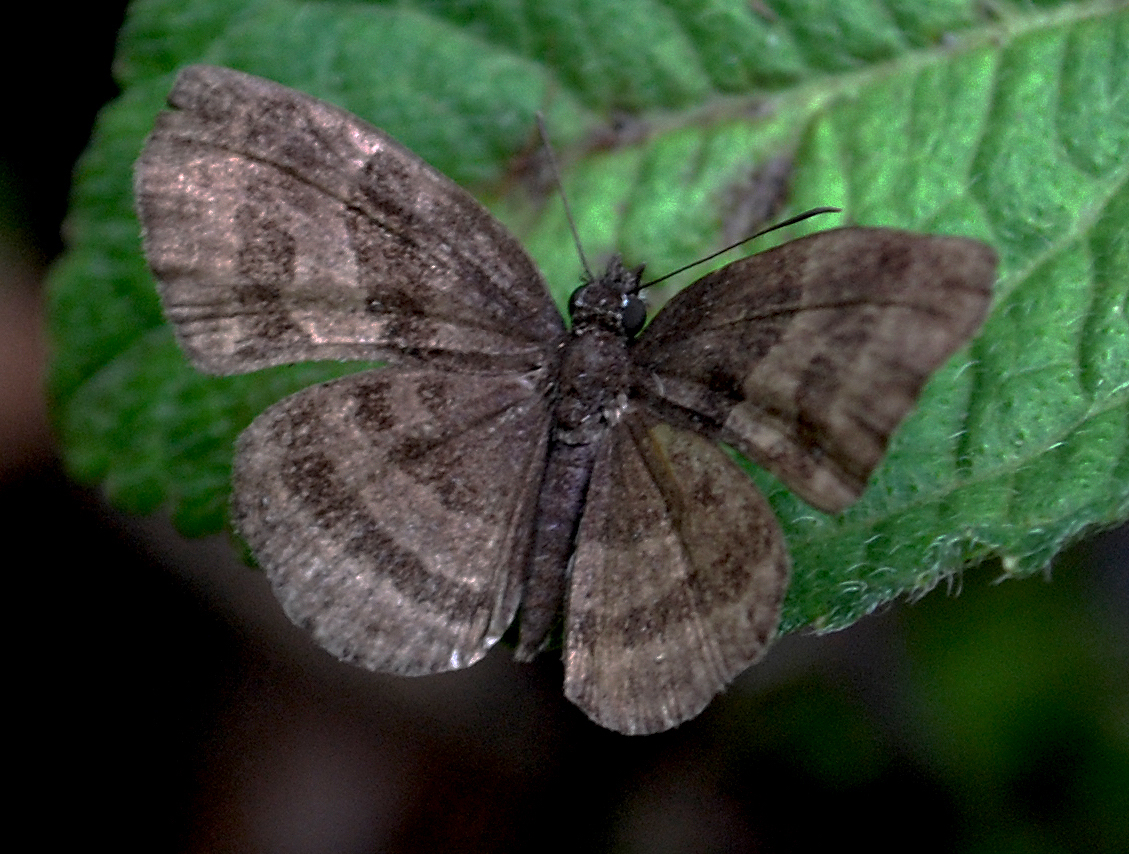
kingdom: Animalia
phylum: Arthropoda
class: Insecta
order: Lepidoptera
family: Hesperiidae
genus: Trina
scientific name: Trina geometrina
